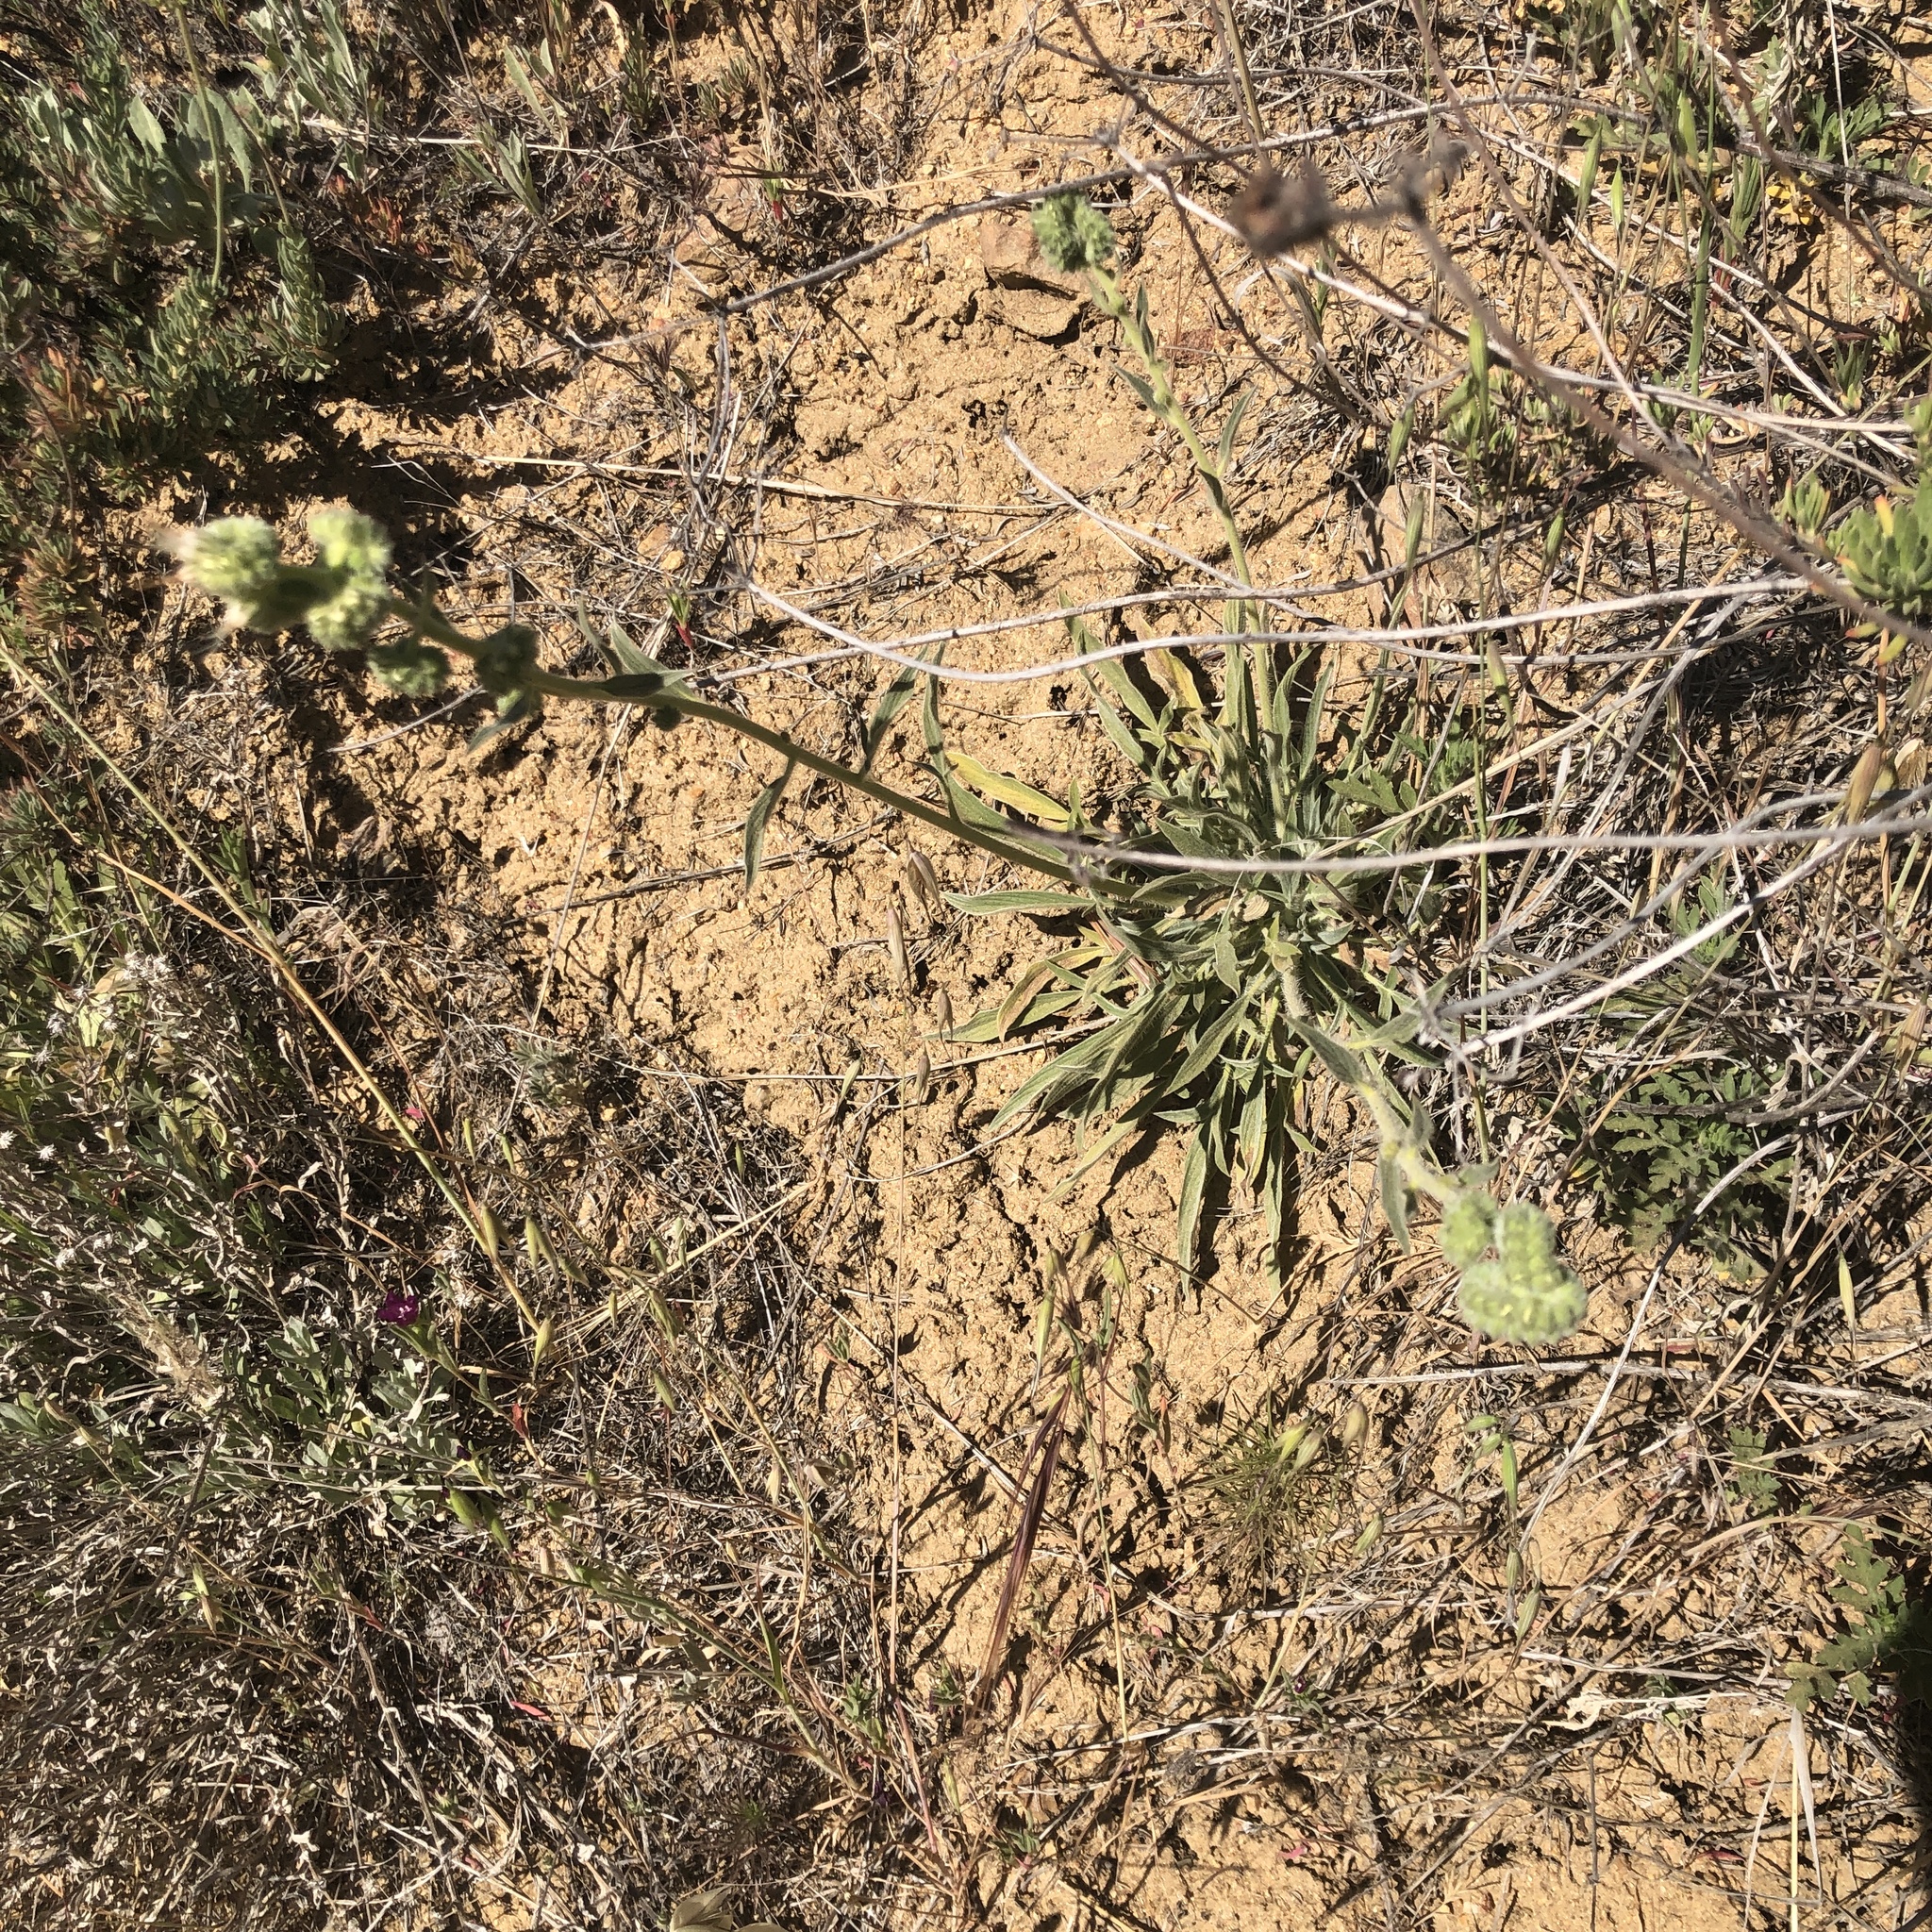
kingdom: Plantae
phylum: Tracheophyta
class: Magnoliopsida
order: Boraginales
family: Hydrophyllaceae
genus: Phacelia
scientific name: Phacelia imbricata
